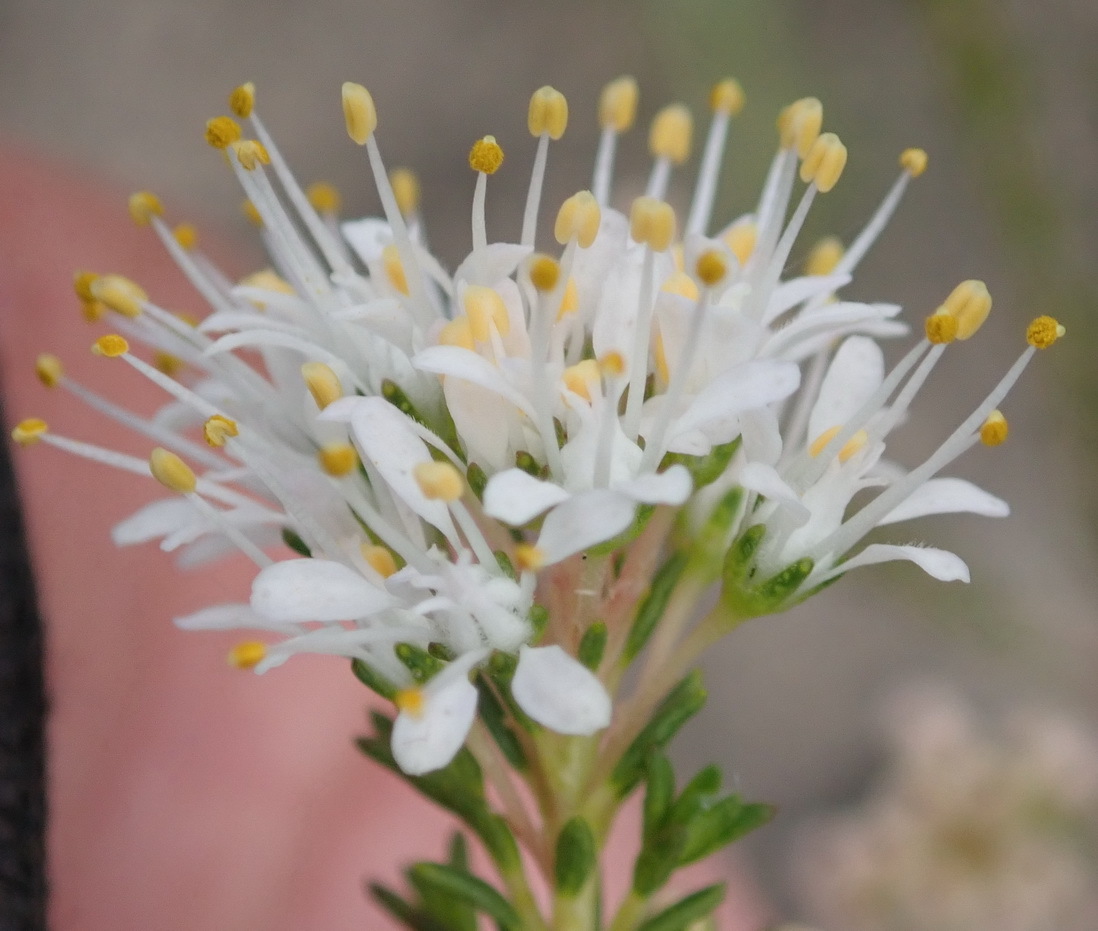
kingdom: Plantae
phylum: Tracheophyta
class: Magnoliopsida
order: Sapindales
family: Rutaceae
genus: Agathosma
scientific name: Agathosma mundtii
